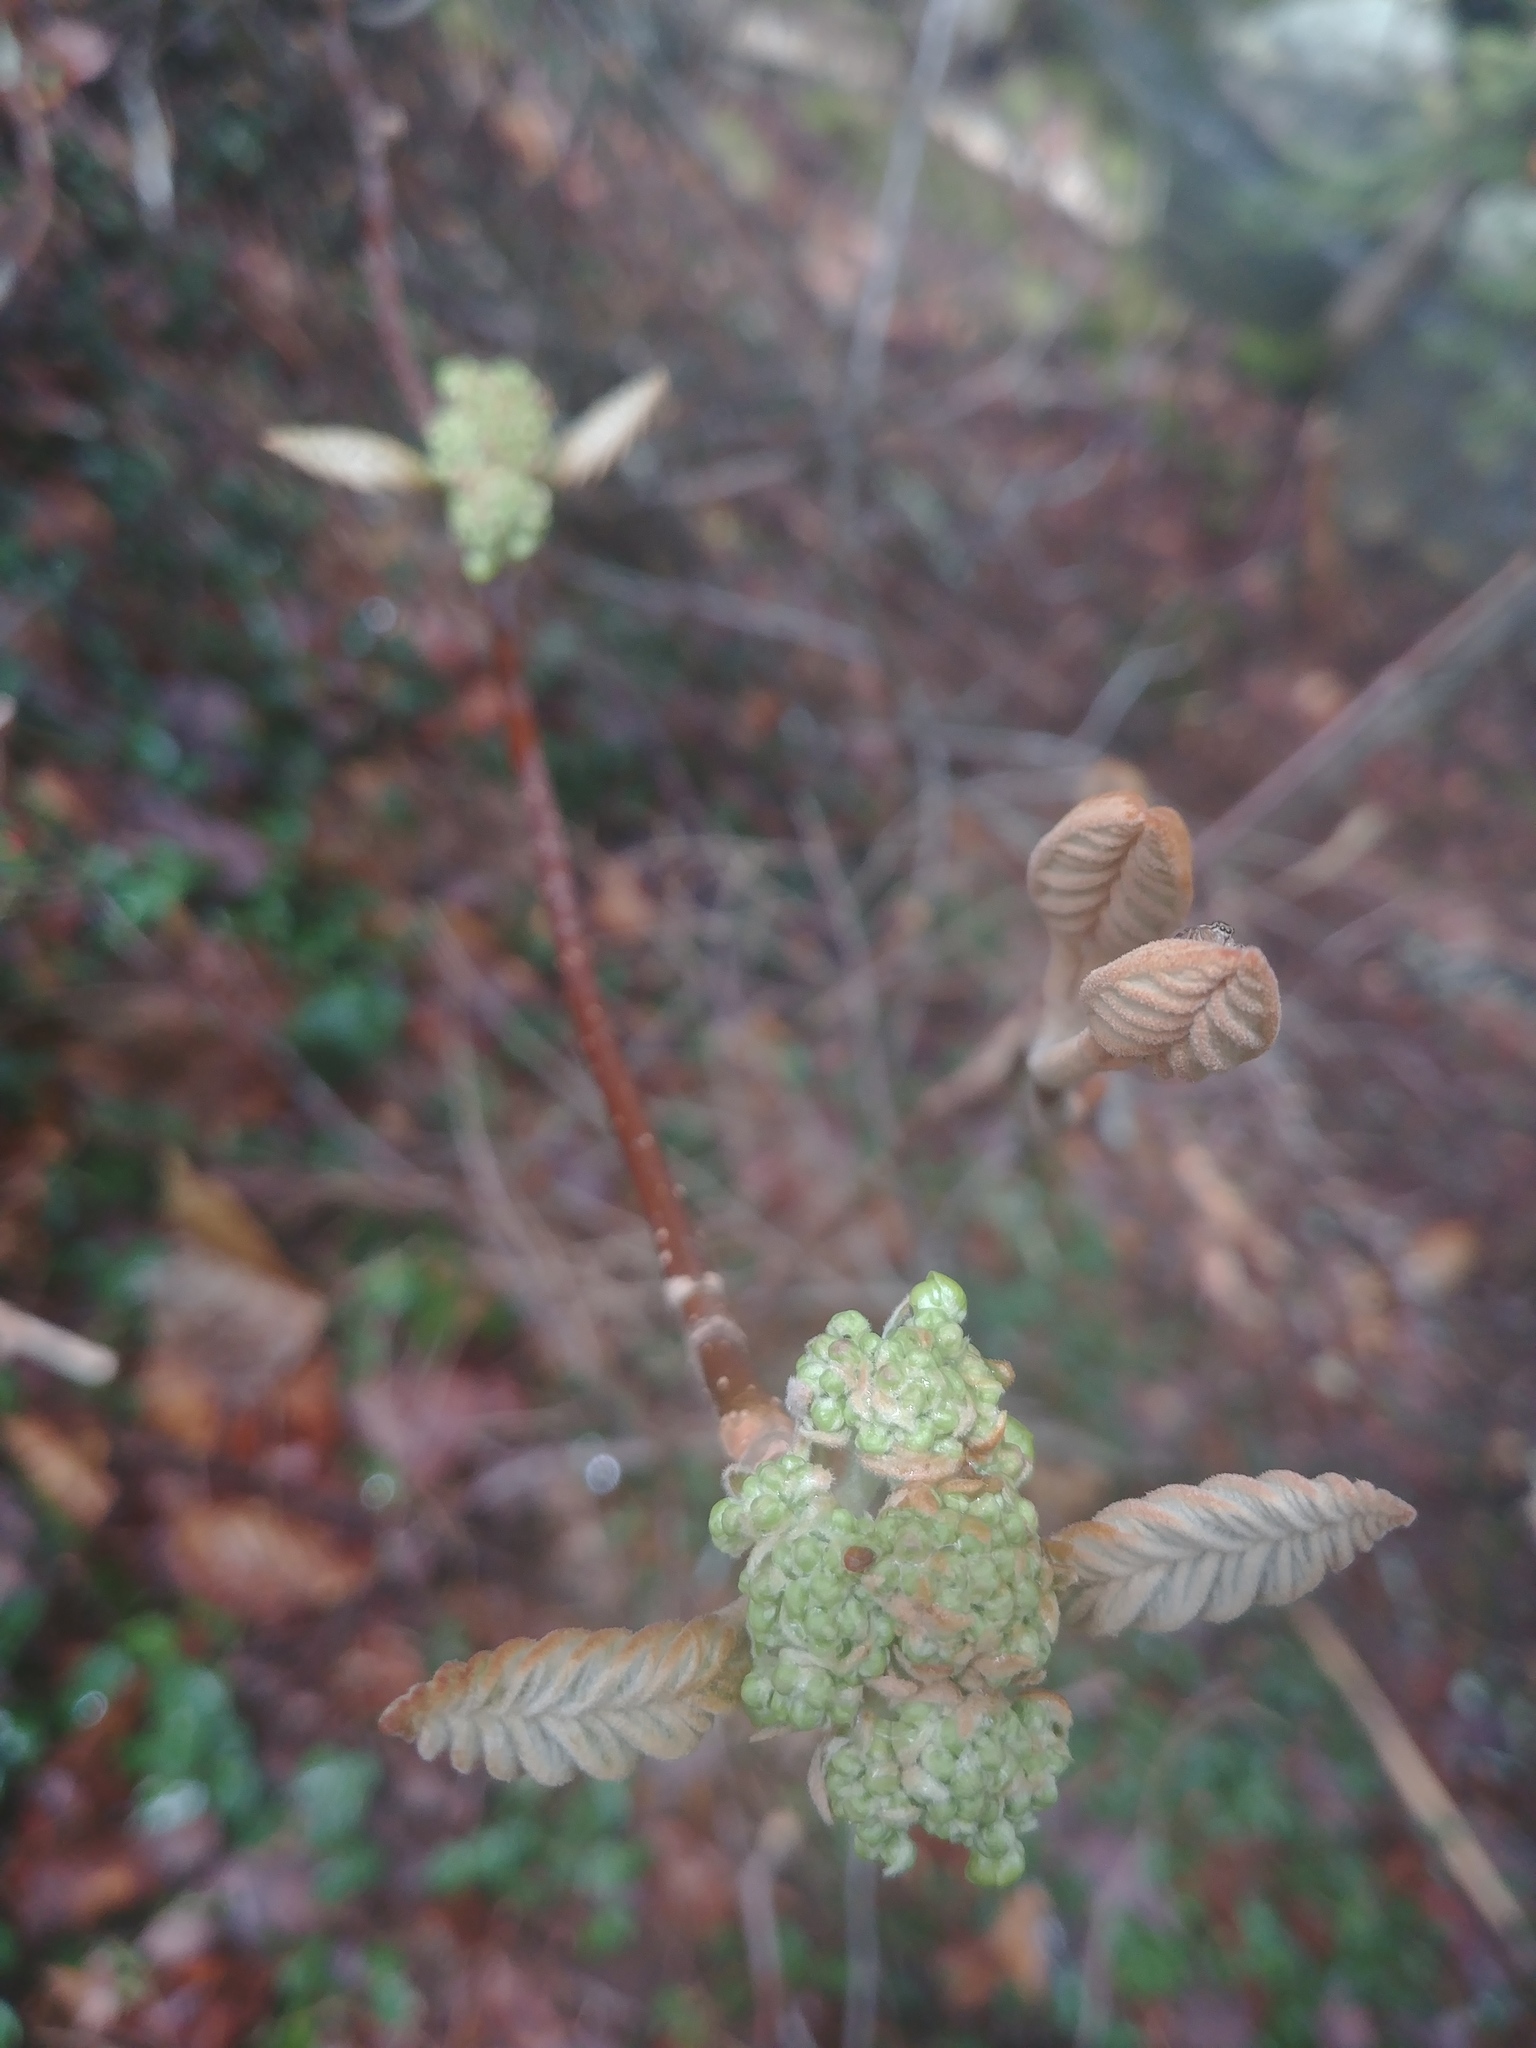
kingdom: Plantae
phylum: Tracheophyta
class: Magnoliopsida
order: Dipsacales
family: Viburnaceae
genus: Viburnum
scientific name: Viburnum lantanoides
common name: Hobblebush
